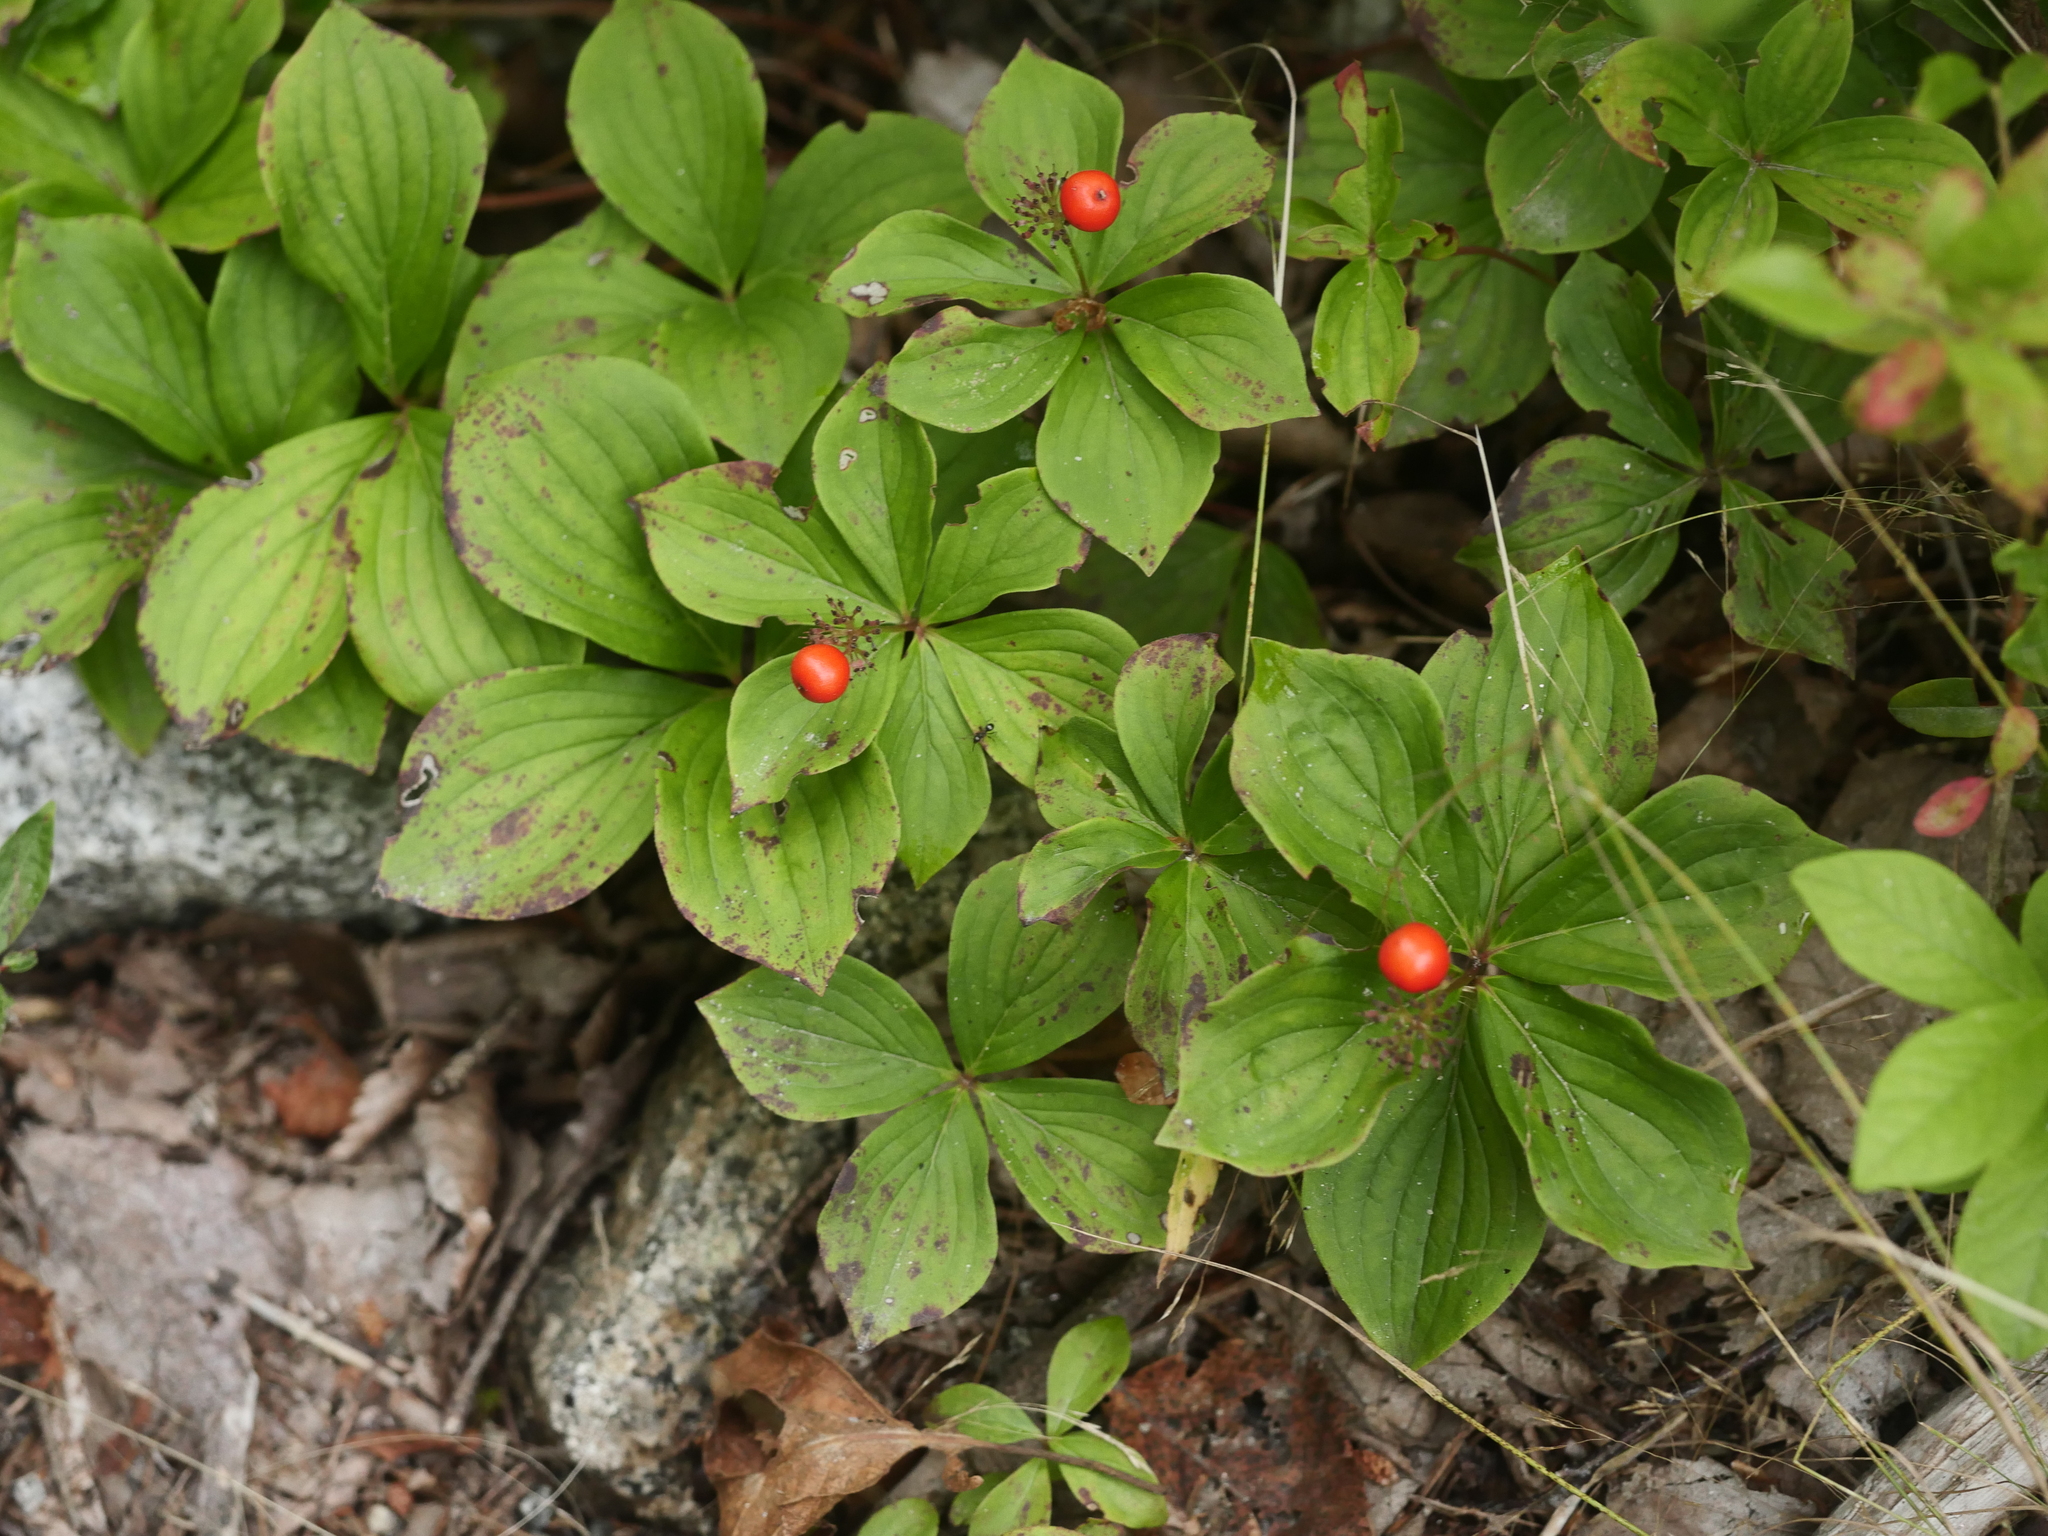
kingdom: Plantae
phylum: Tracheophyta
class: Magnoliopsida
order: Cornales
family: Cornaceae
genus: Cornus
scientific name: Cornus canadensis
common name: Creeping dogwood
